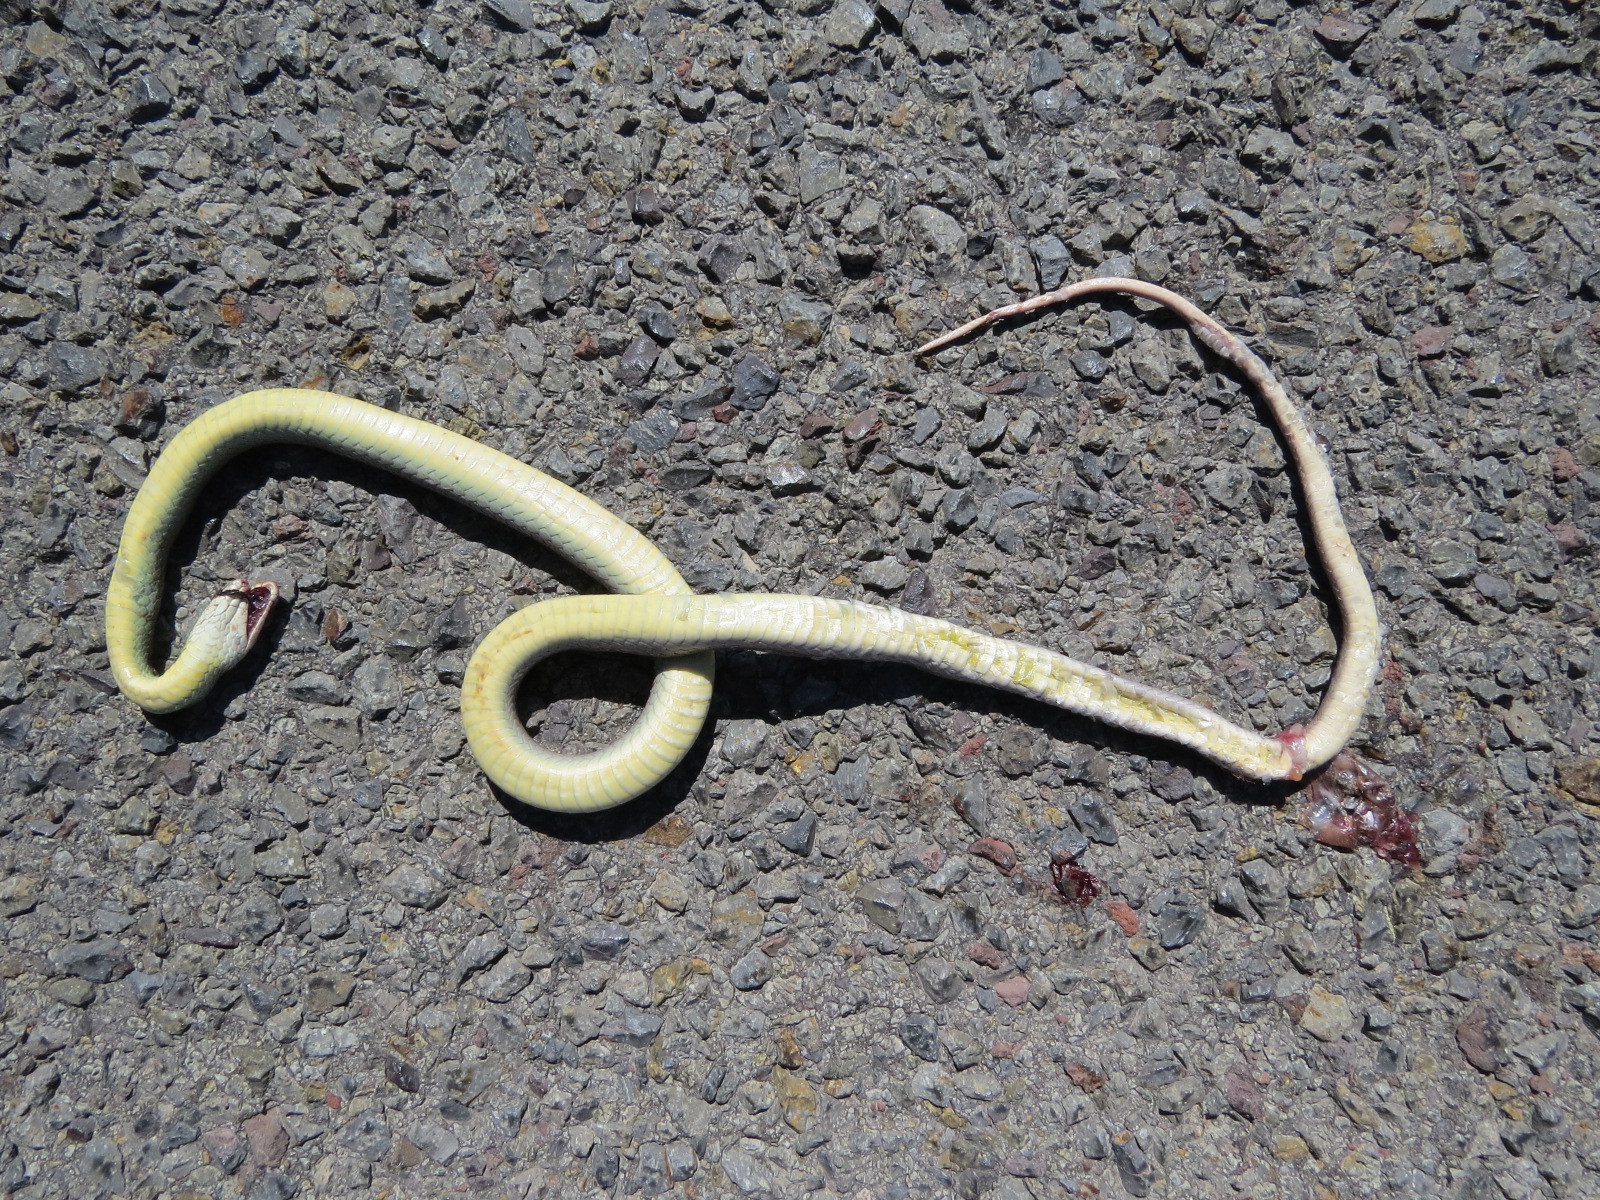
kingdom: Animalia
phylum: Chordata
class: Squamata
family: Colubridae
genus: Coluber
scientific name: Coluber constrictor
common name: Eastern racer
